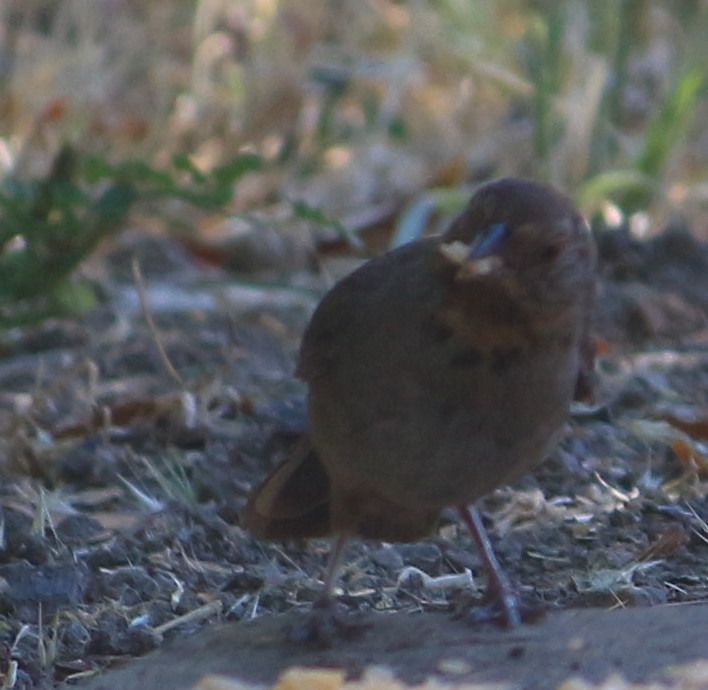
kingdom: Animalia
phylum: Chordata
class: Aves
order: Passeriformes
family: Passerellidae
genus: Melozone
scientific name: Melozone crissalis
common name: California towhee
